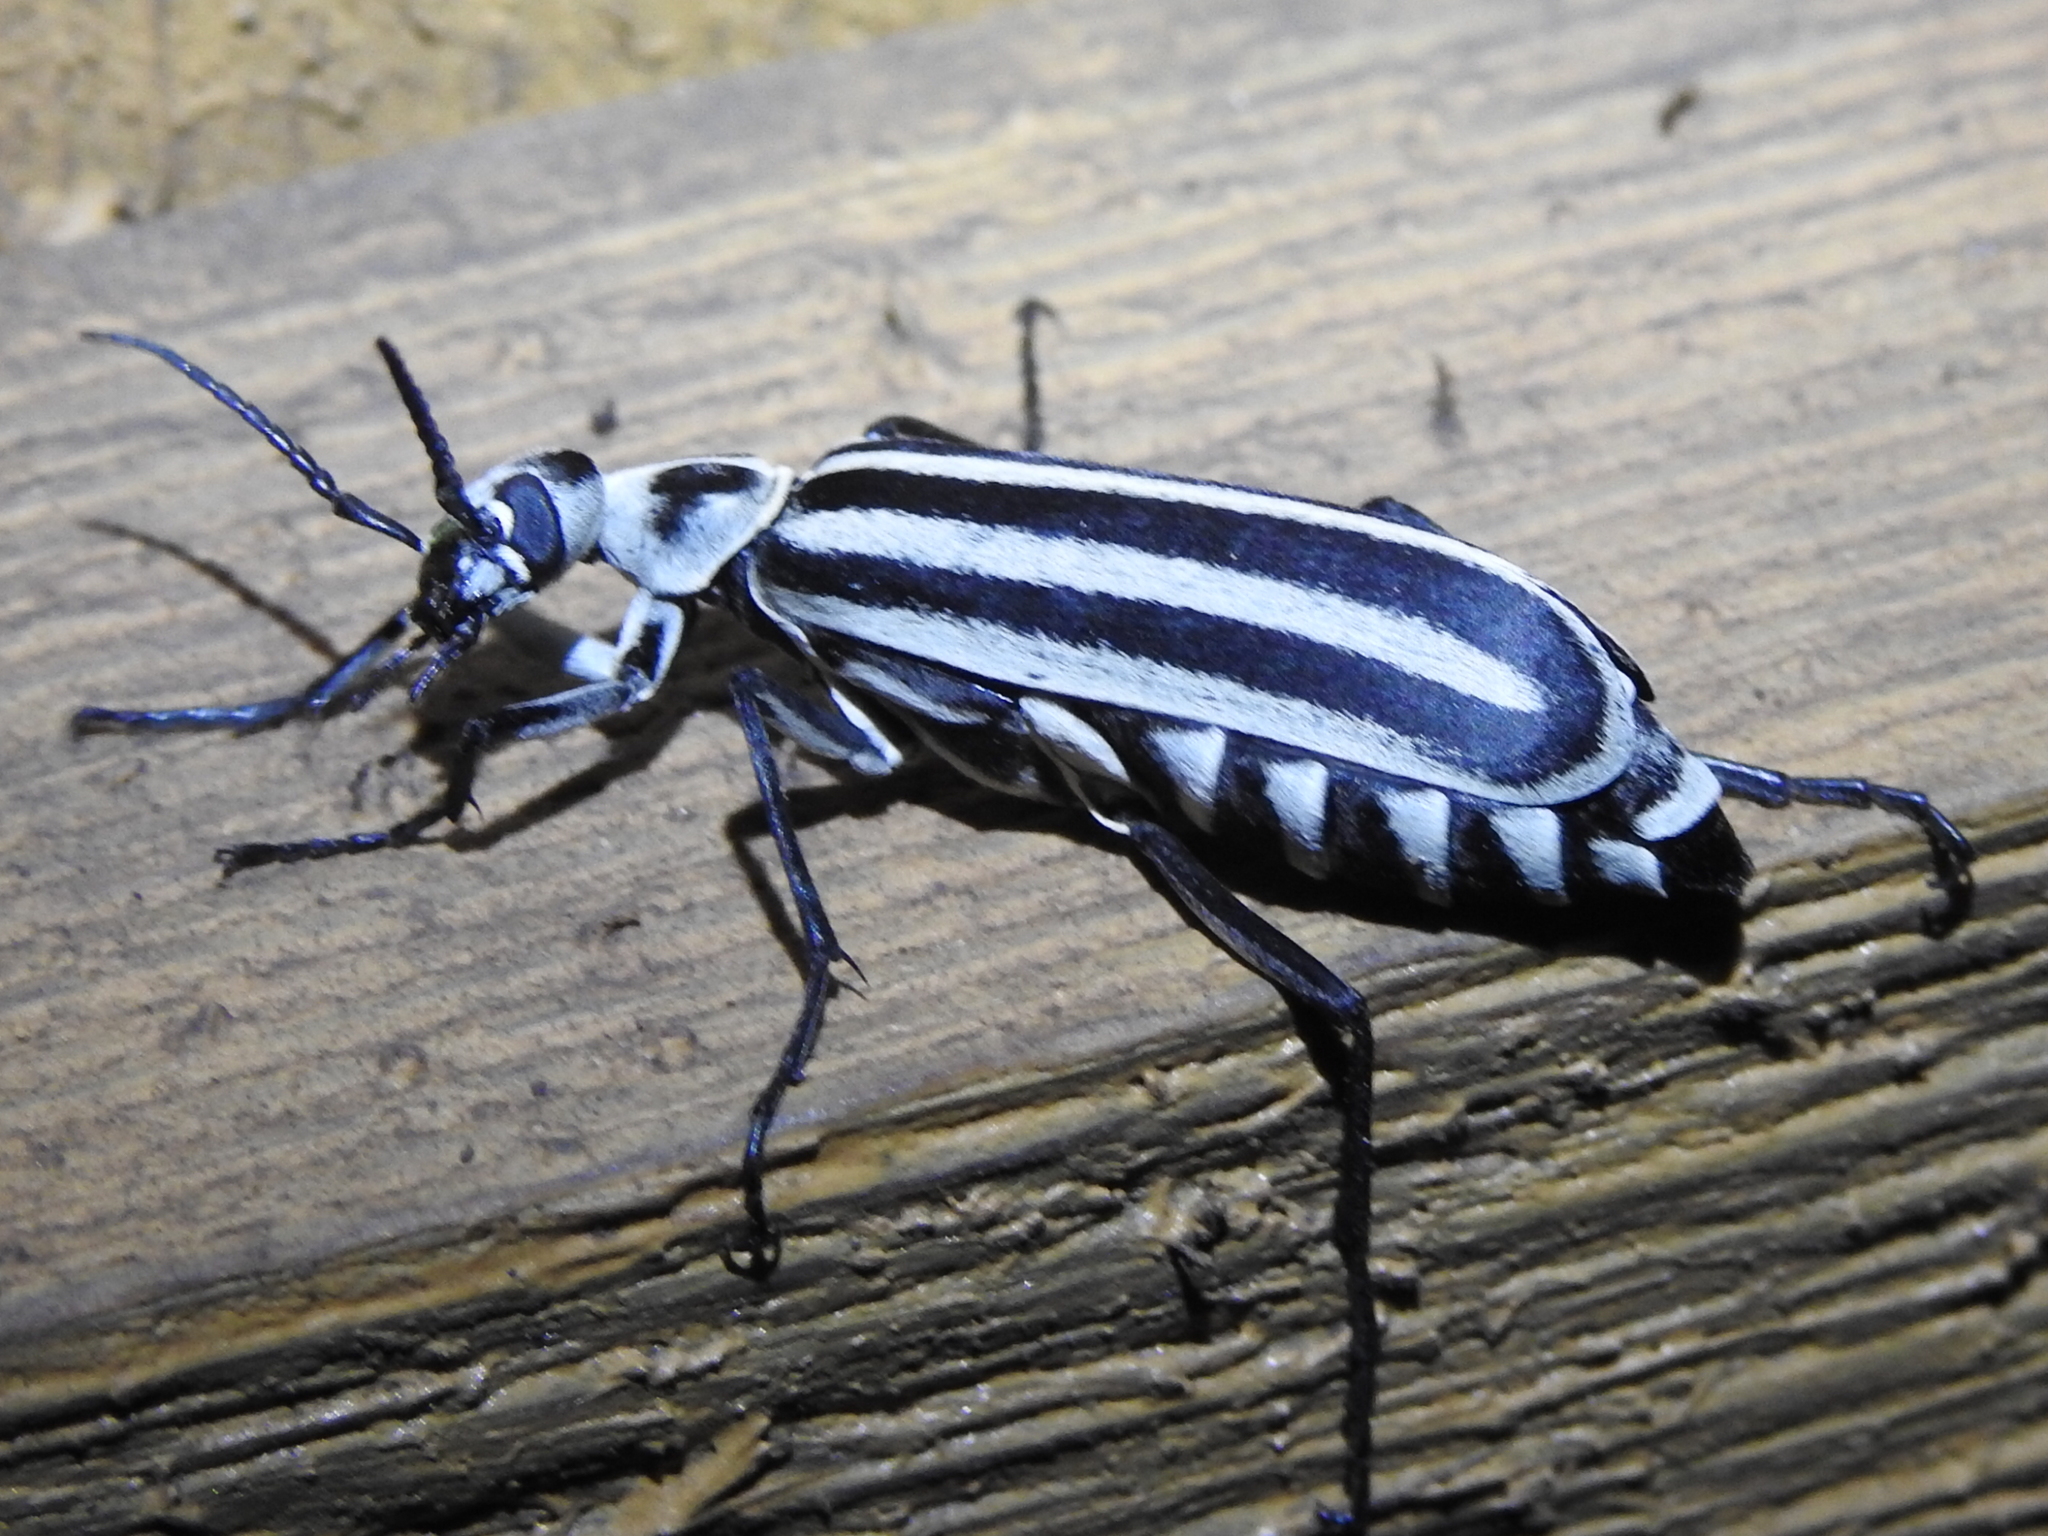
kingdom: Animalia
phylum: Arthropoda
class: Insecta
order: Coleoptera
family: Meloidae
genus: Epicauta
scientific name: Epicauta atrivittata
